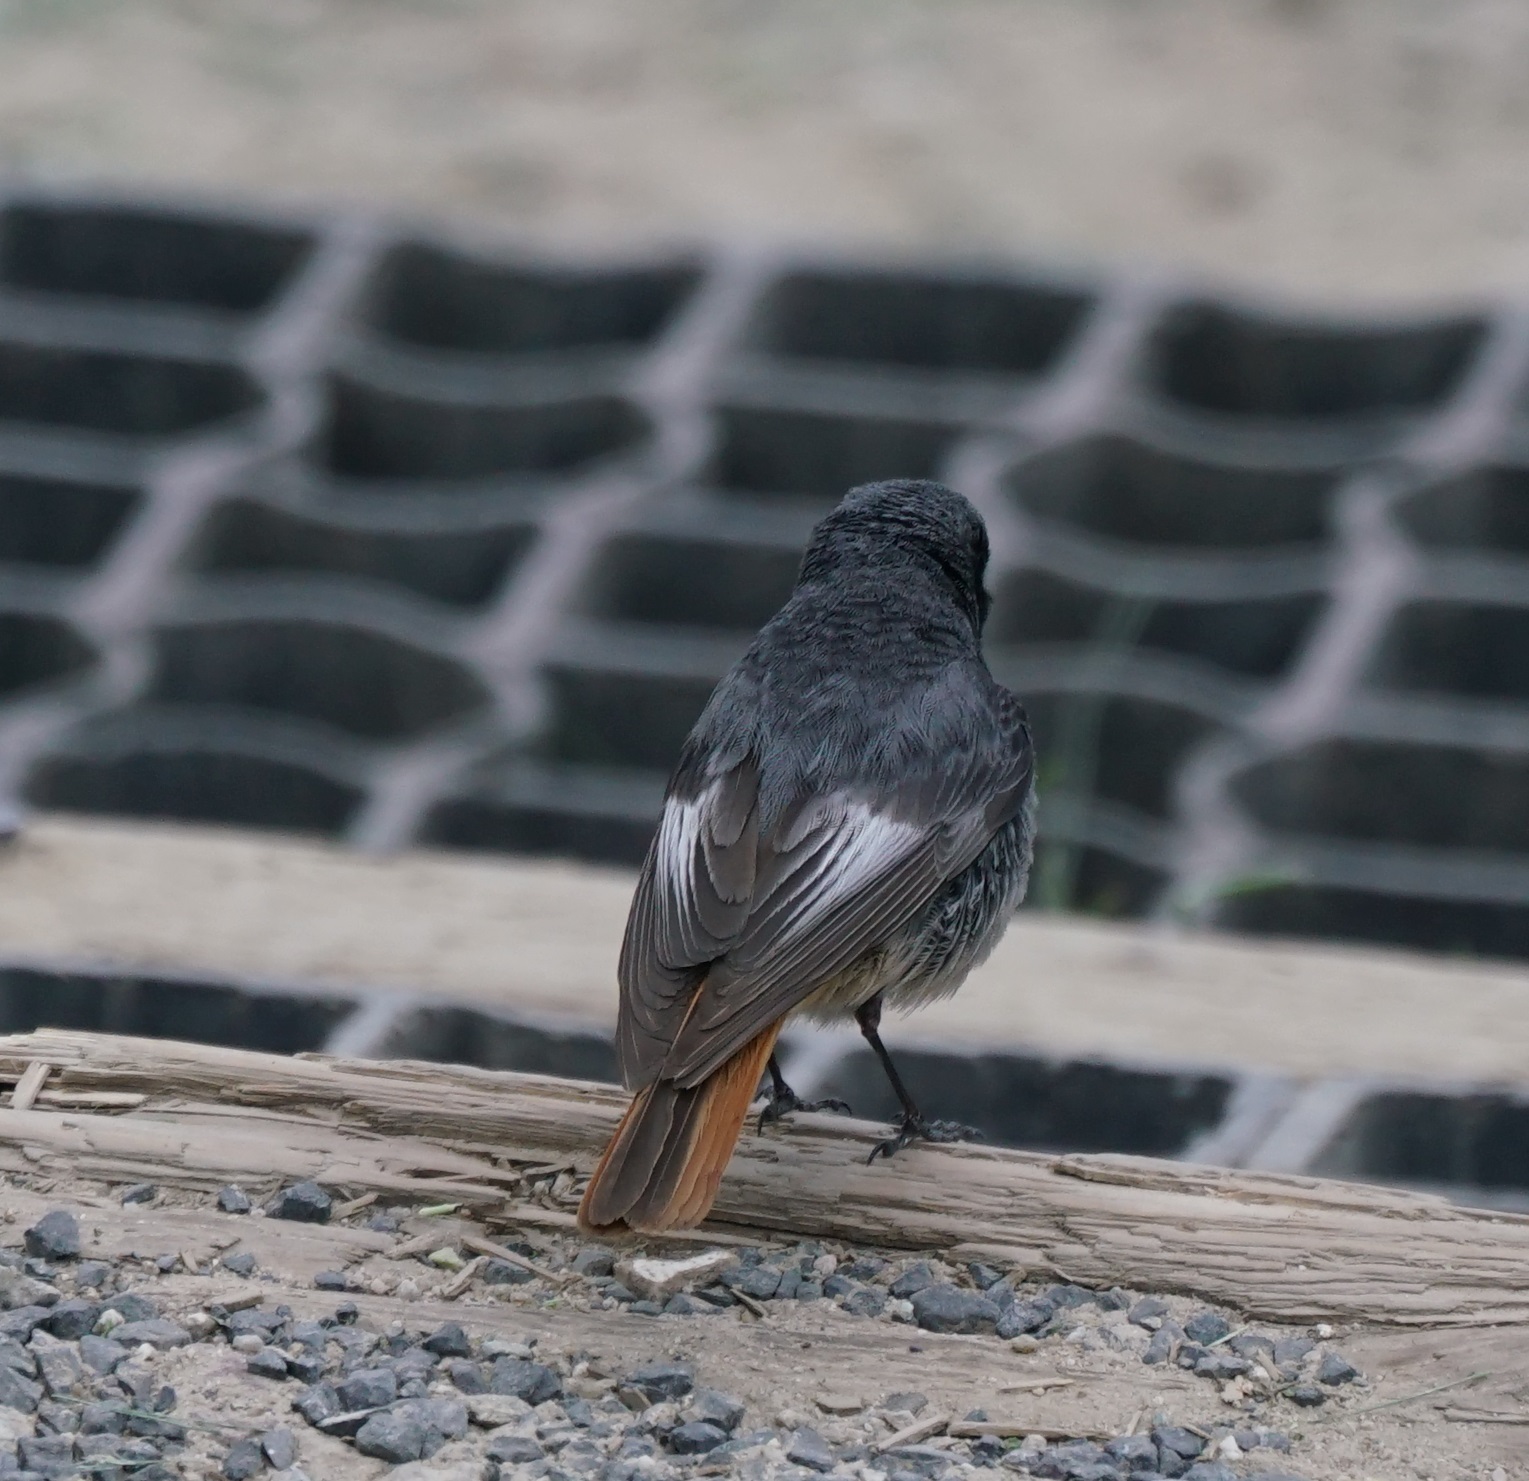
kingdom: Animalia
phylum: Chordata
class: Aves
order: Passeriformes
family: Muscicapidae
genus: Phoenicurus
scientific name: Phoenicurus ochruros
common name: Black redstart
